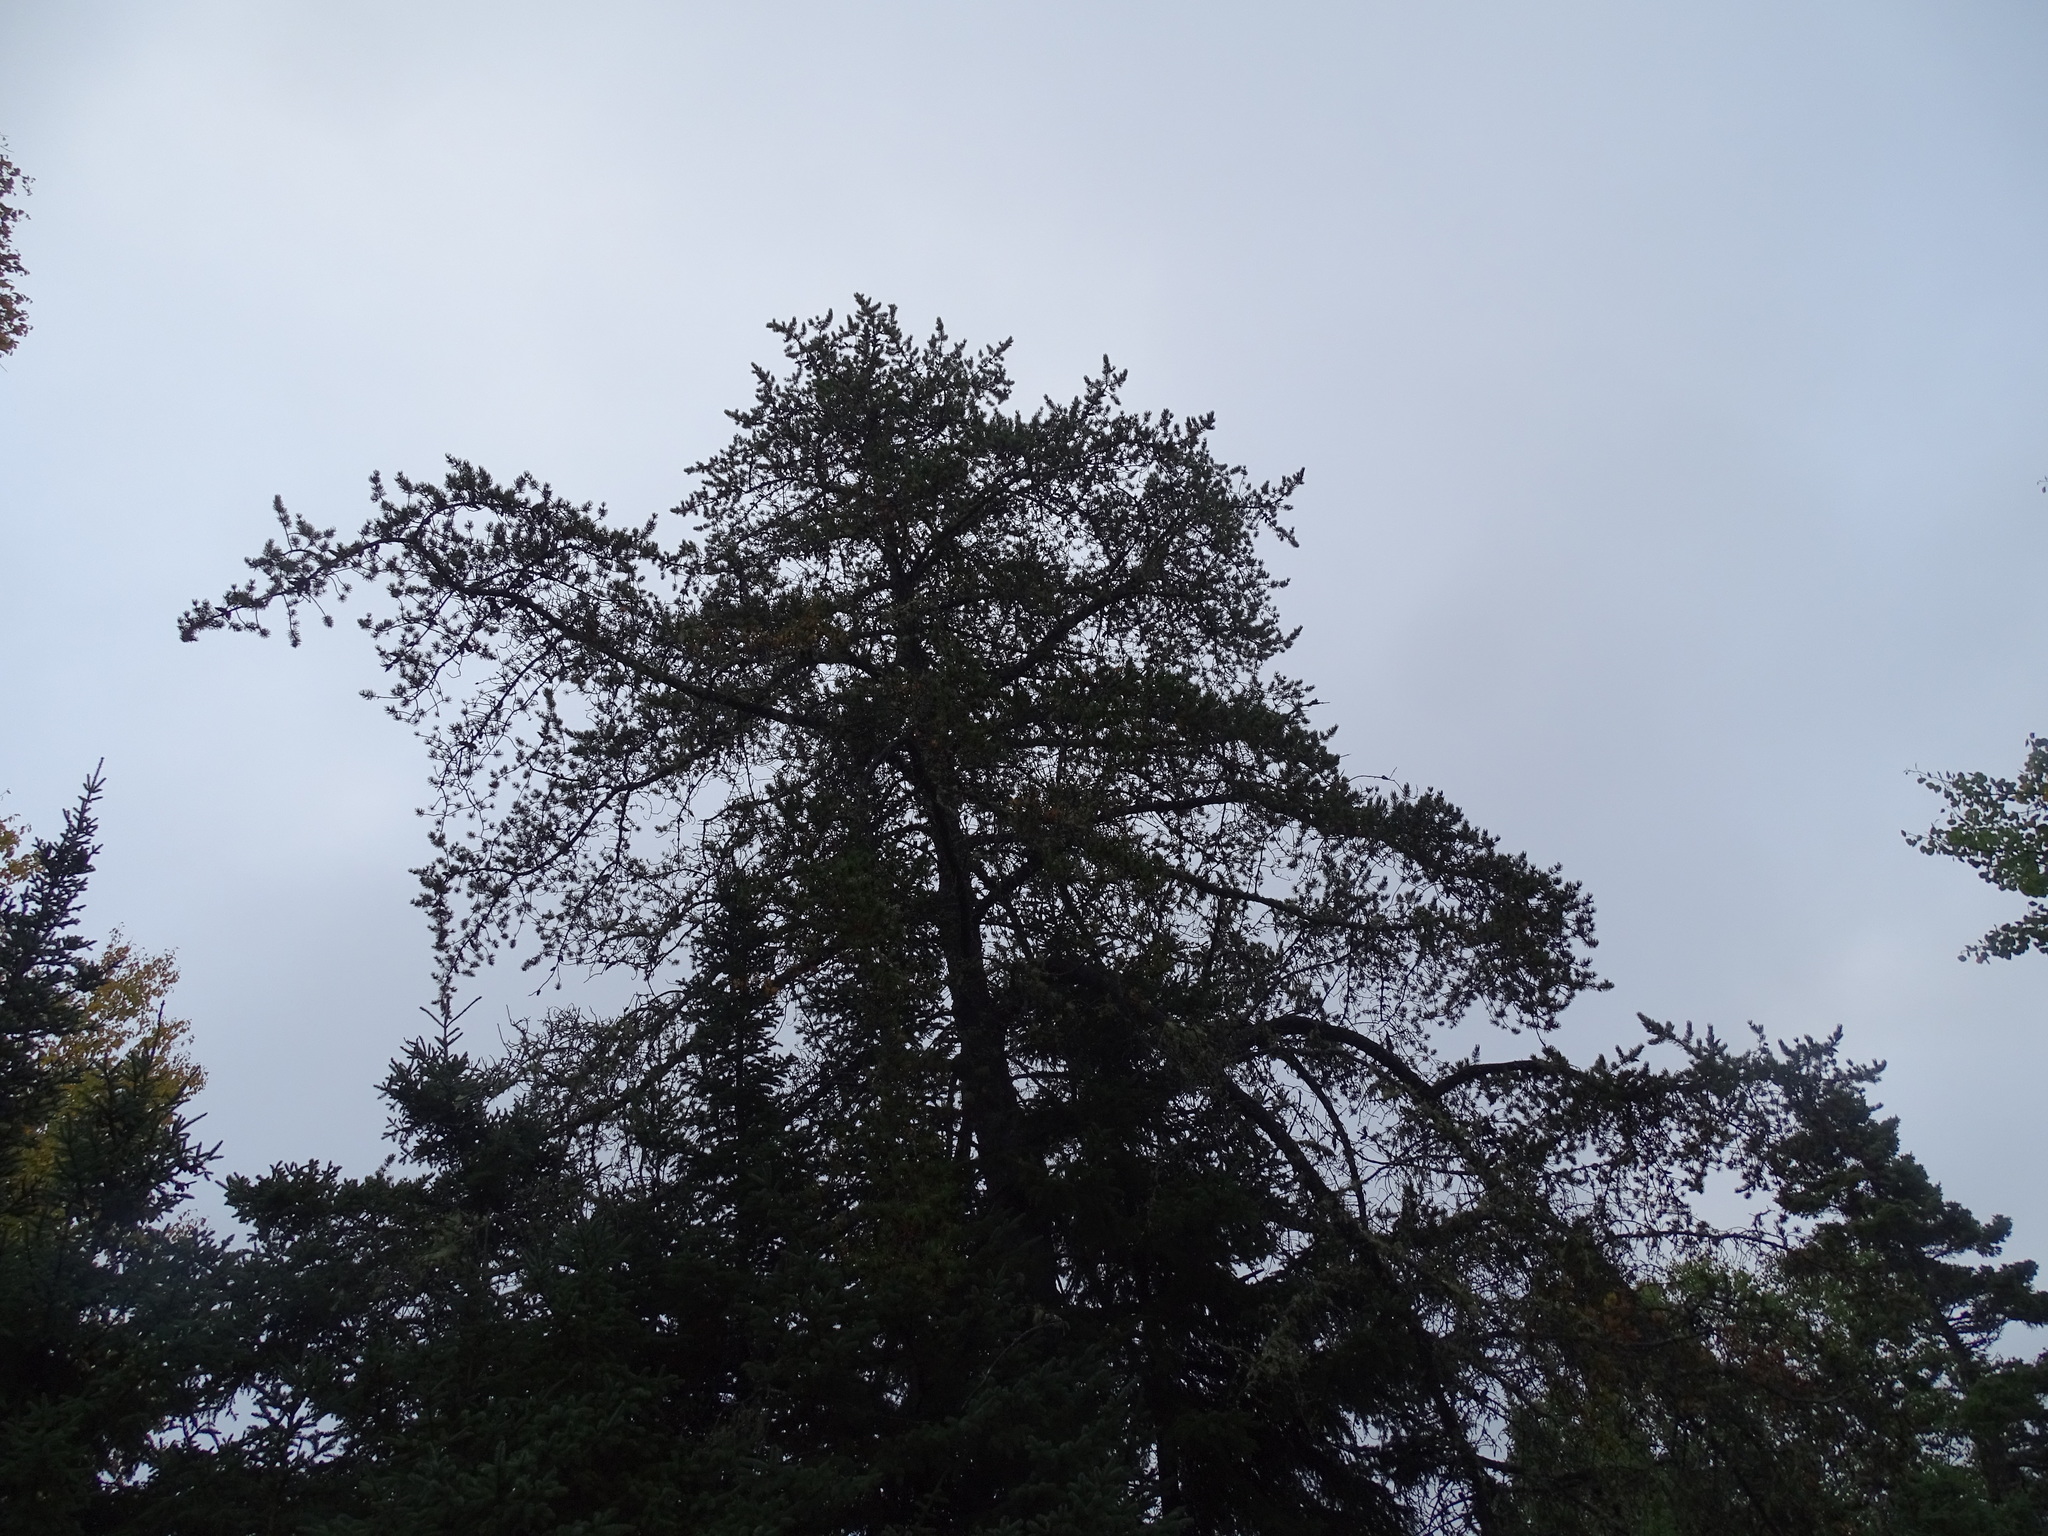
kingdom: Plantae
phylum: Tracheophyta
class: Pinopsida
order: Pinales
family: Pinaceae
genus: Pinus
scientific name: Pinus banksiana
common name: Jack pine
